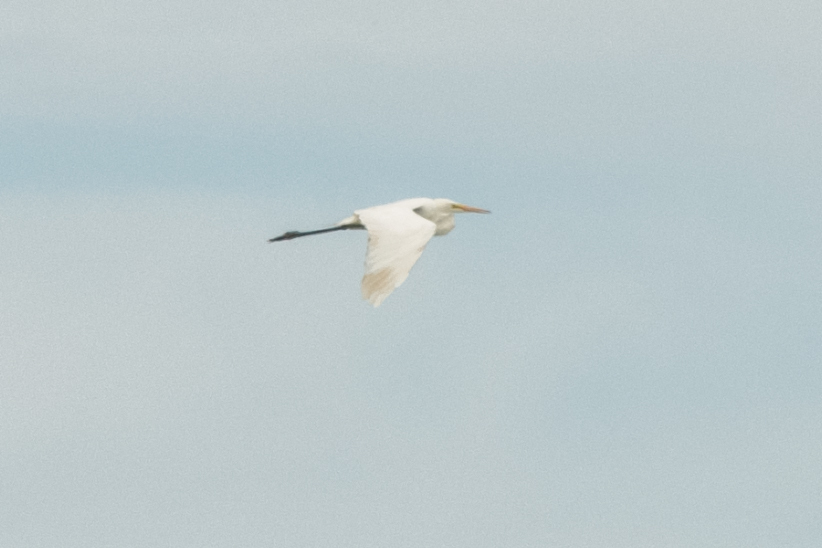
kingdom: Animalia
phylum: Chordata
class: Aves
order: Pelecaniformes
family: Ardeidae
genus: Ardea
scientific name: Ardea alba
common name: Great egret
